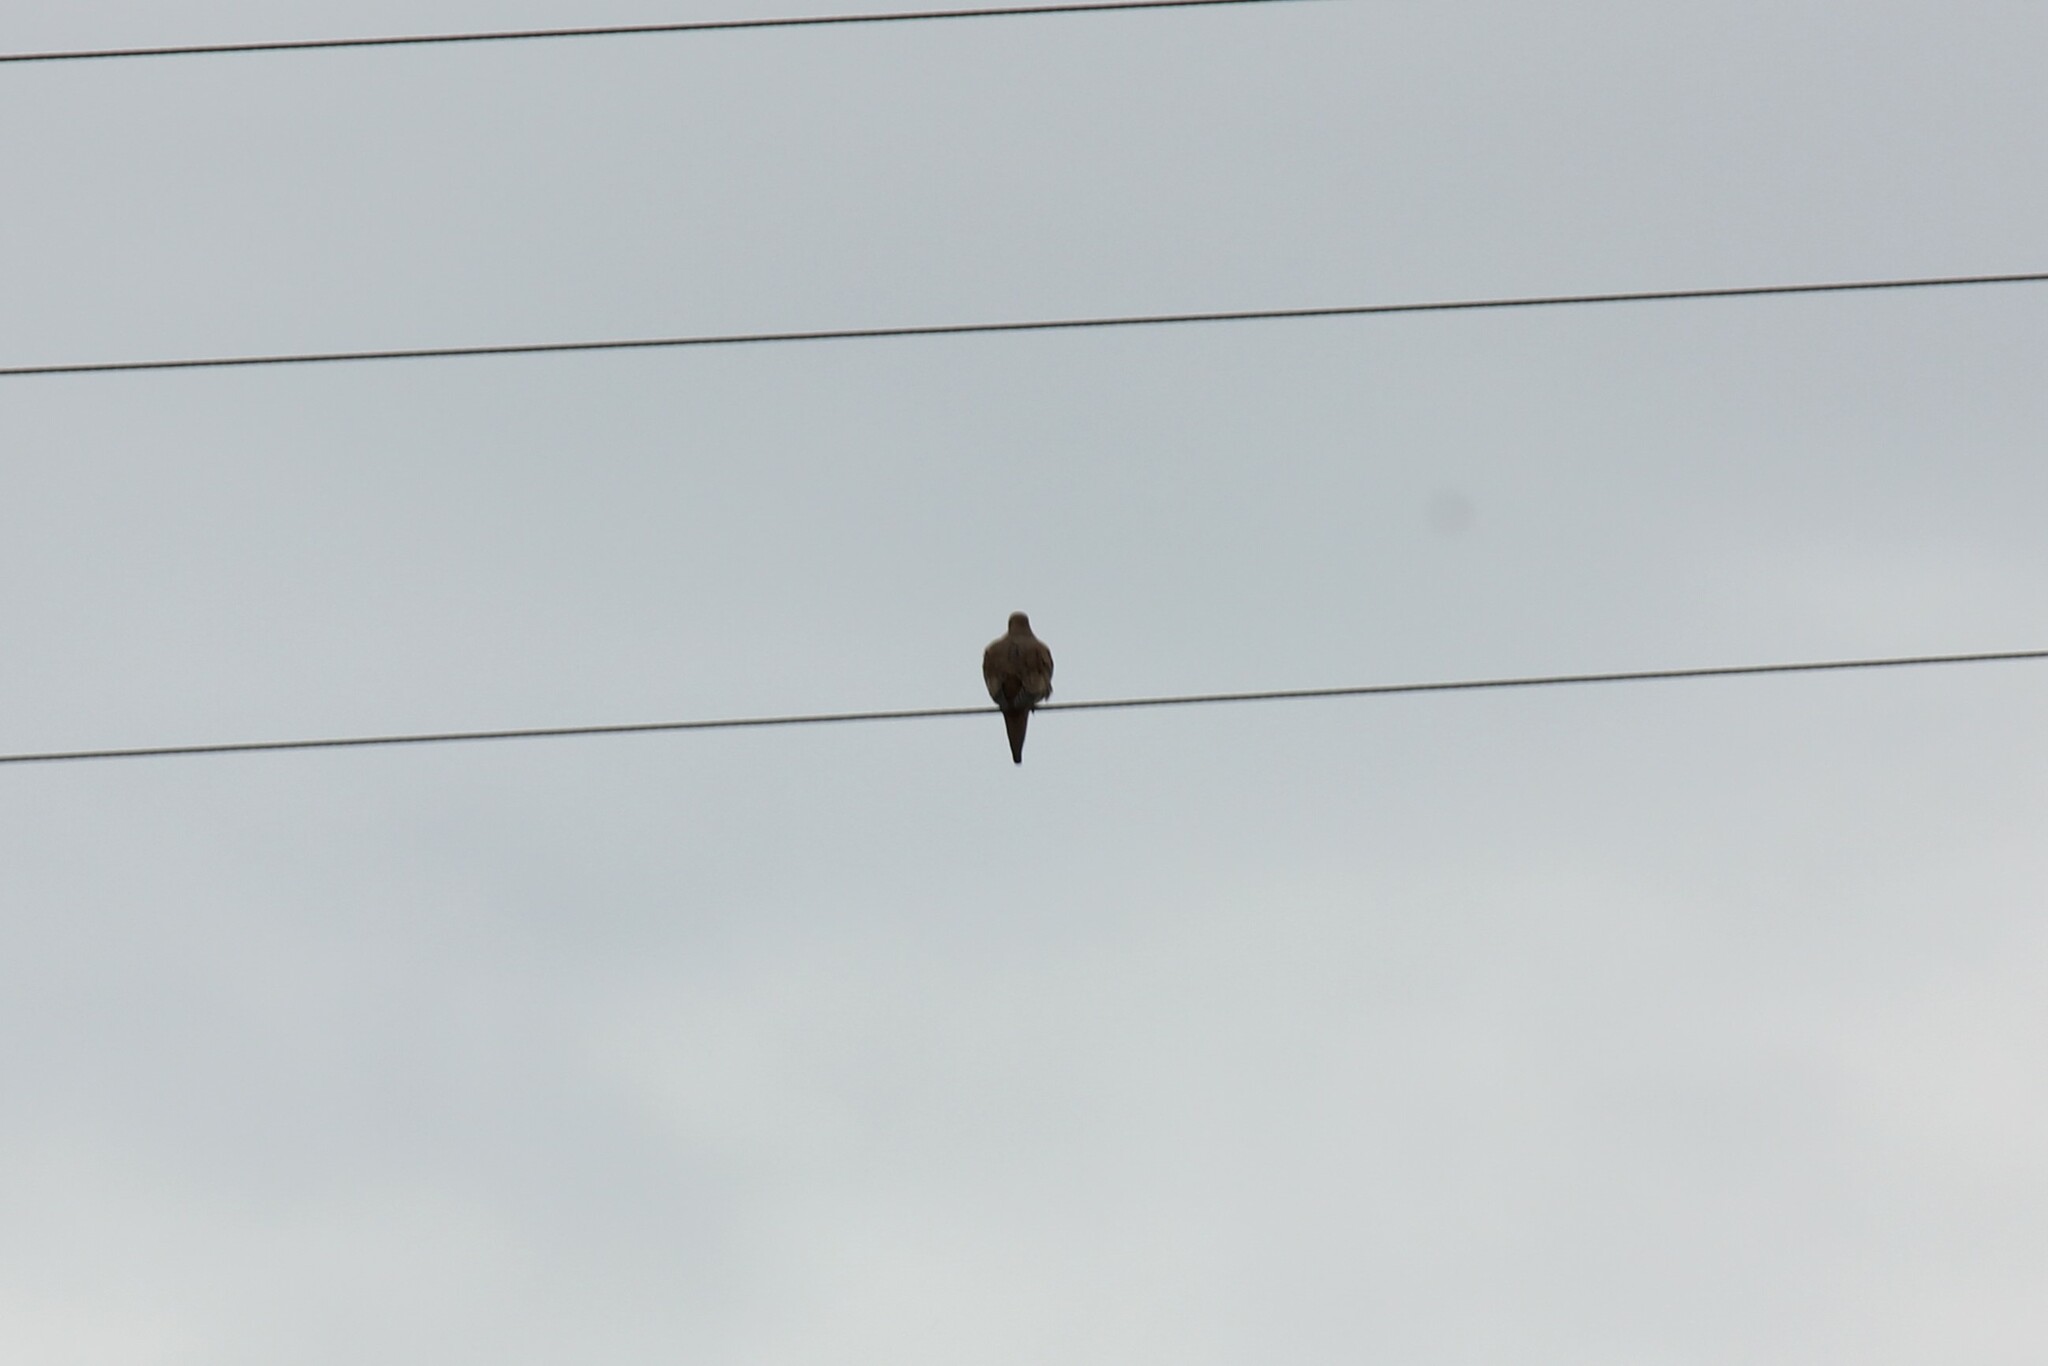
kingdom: Animalia
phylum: Chordata
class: Aves
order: Columbiformes
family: Columbidae
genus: Zenaida
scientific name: Zenaida macroura
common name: Mourning dove
